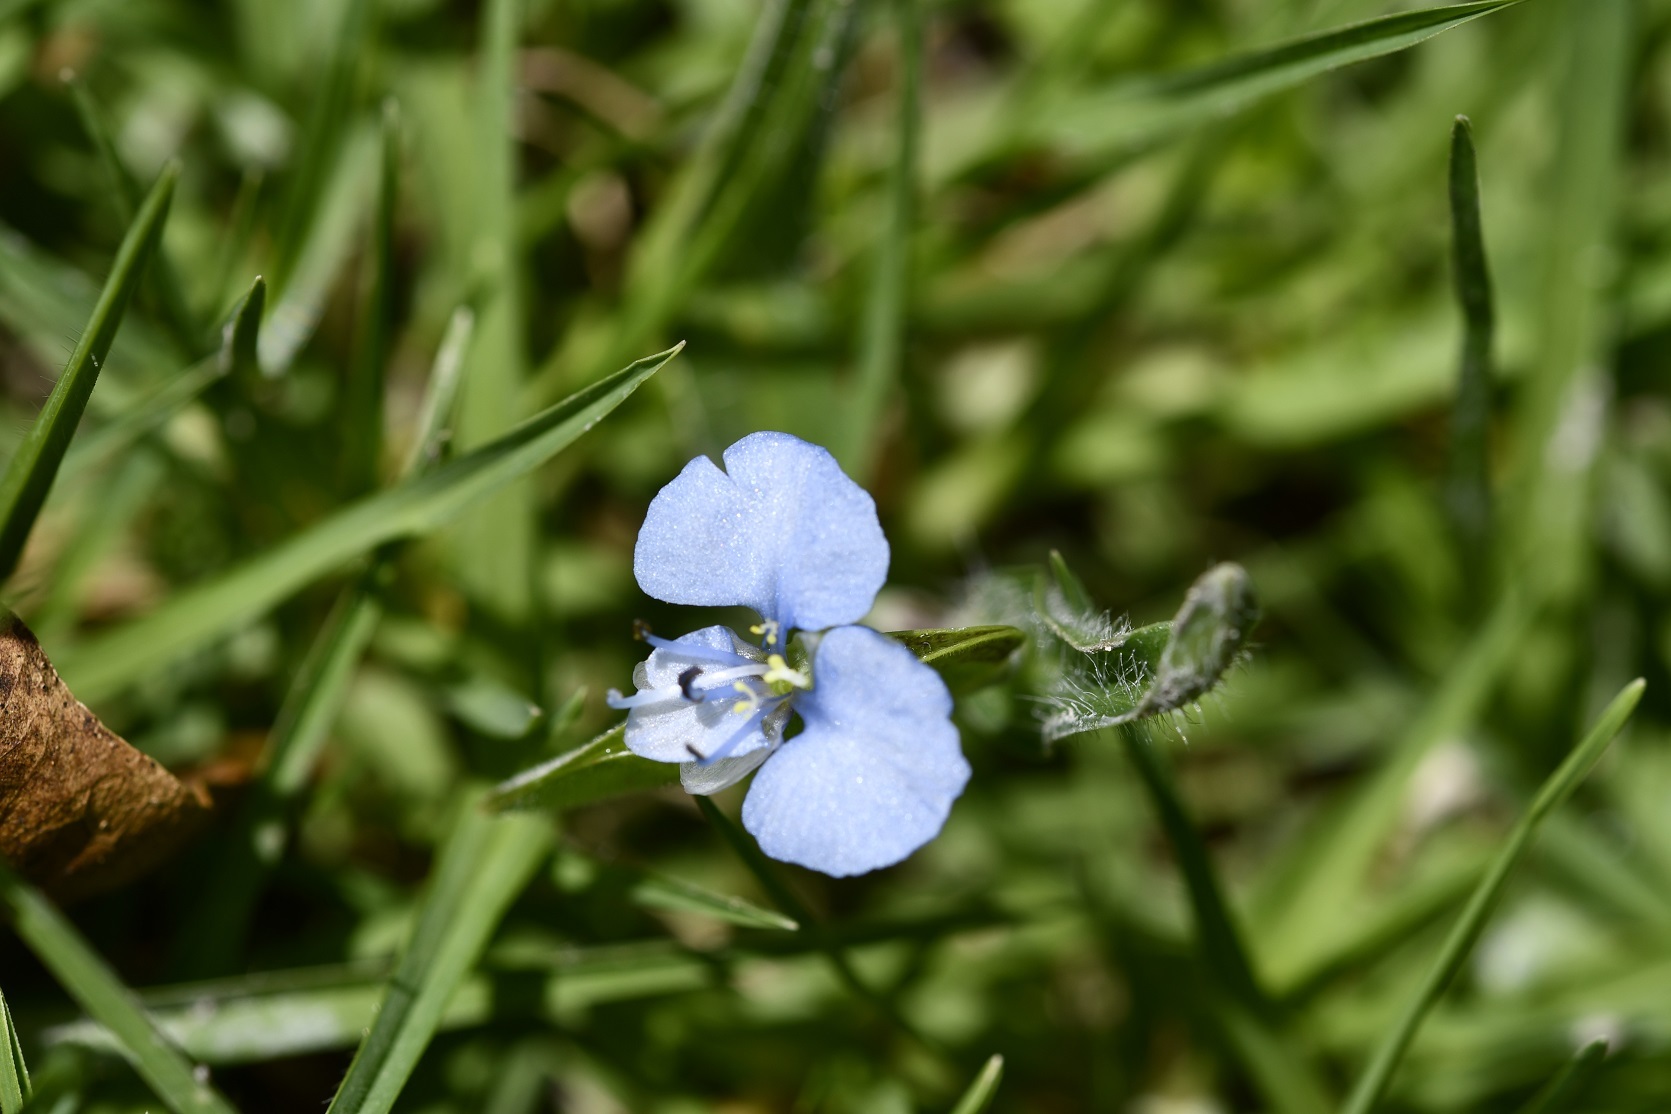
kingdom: Plantae
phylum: Tracheophyta
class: Liliopsida
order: Commelinales
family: Commelinaceae
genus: Commelina
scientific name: Commelina tuberosa
